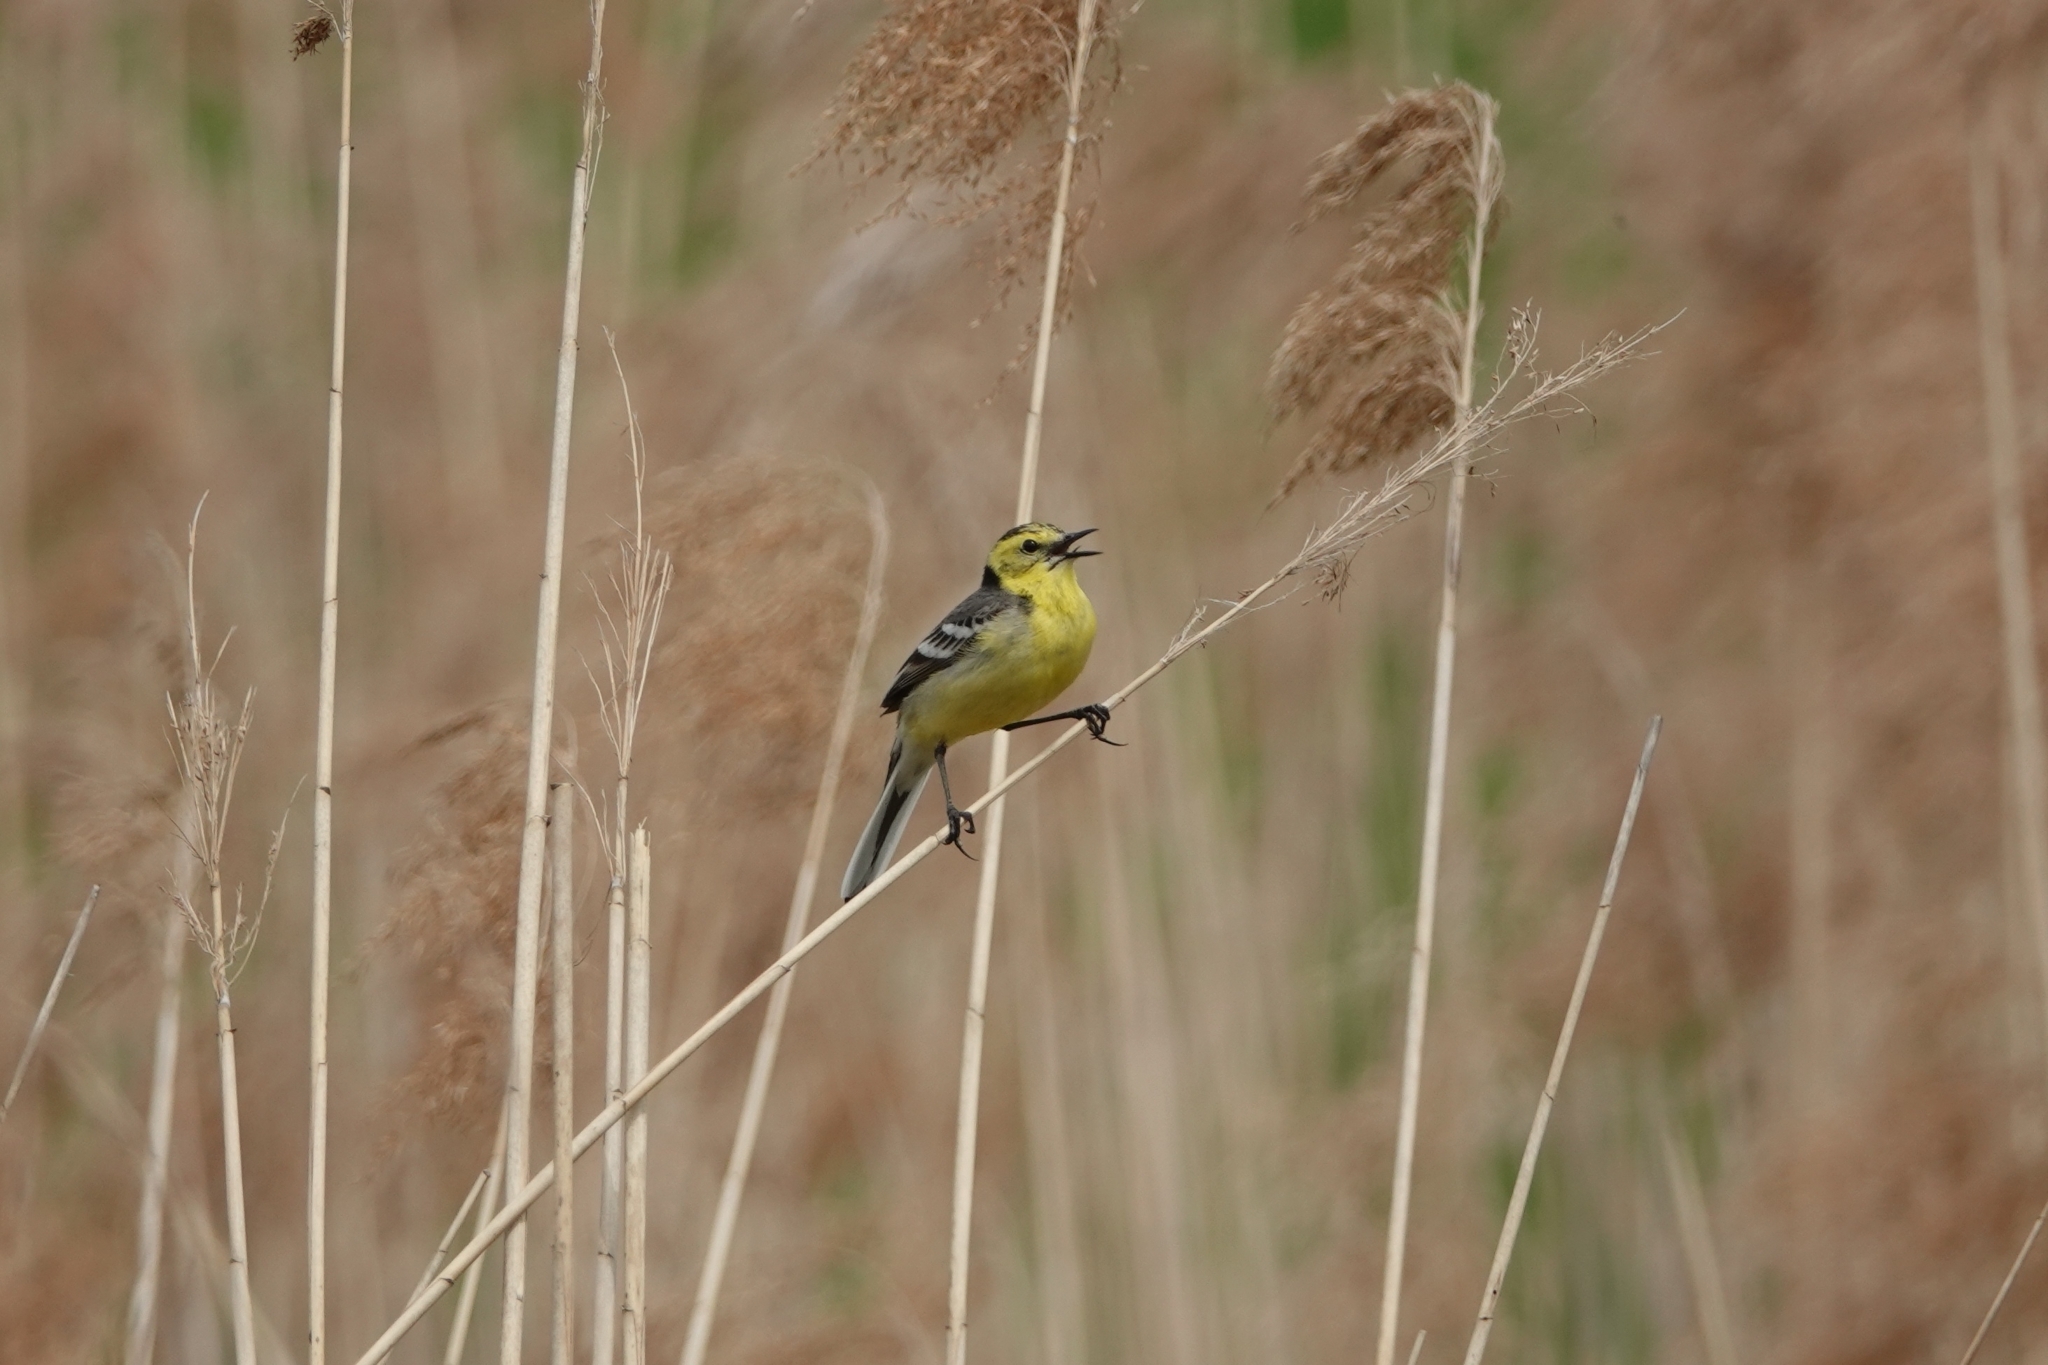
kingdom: Animalia
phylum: Chordata
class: Aves
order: Passeriformes
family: Motacillidae
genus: Motacilla
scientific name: Motacilla citreola
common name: Citrine wagtail
